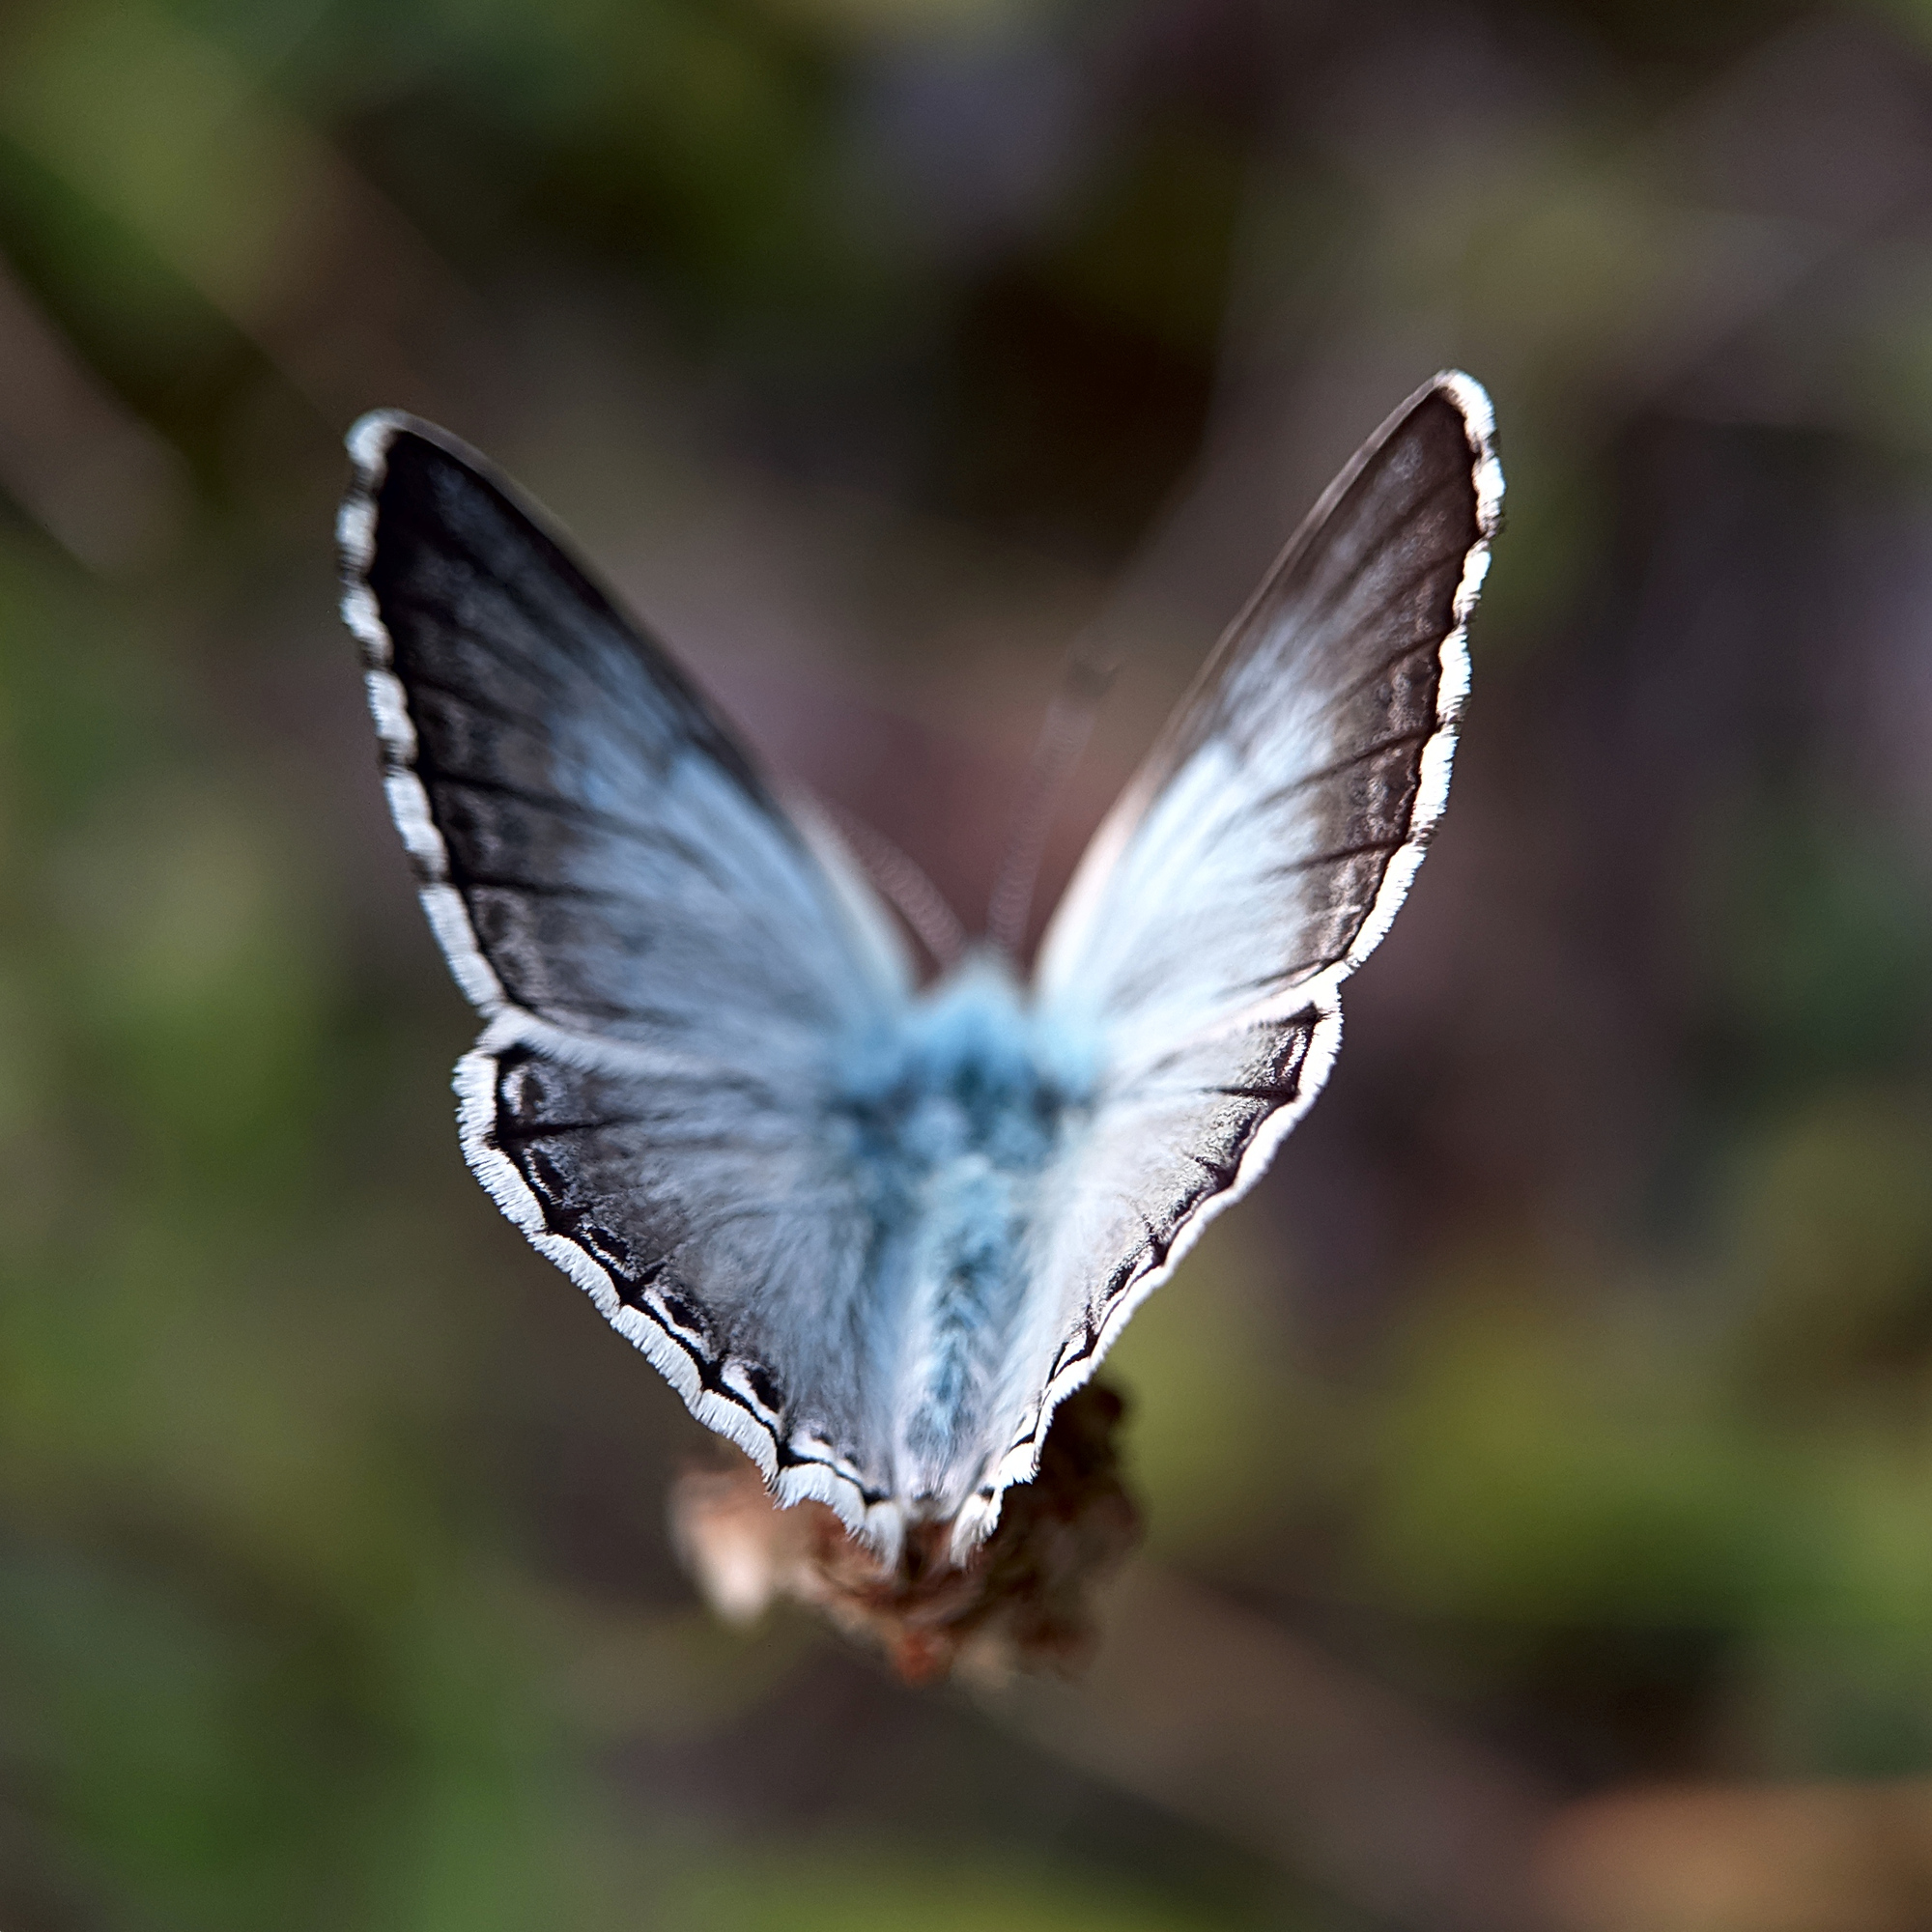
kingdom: Animalia
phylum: Arthropoda
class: Insecta
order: Lepidoptera
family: Lycaenidae
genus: Lysandra
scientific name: Lysandra coridon
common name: Chalkhill blue
